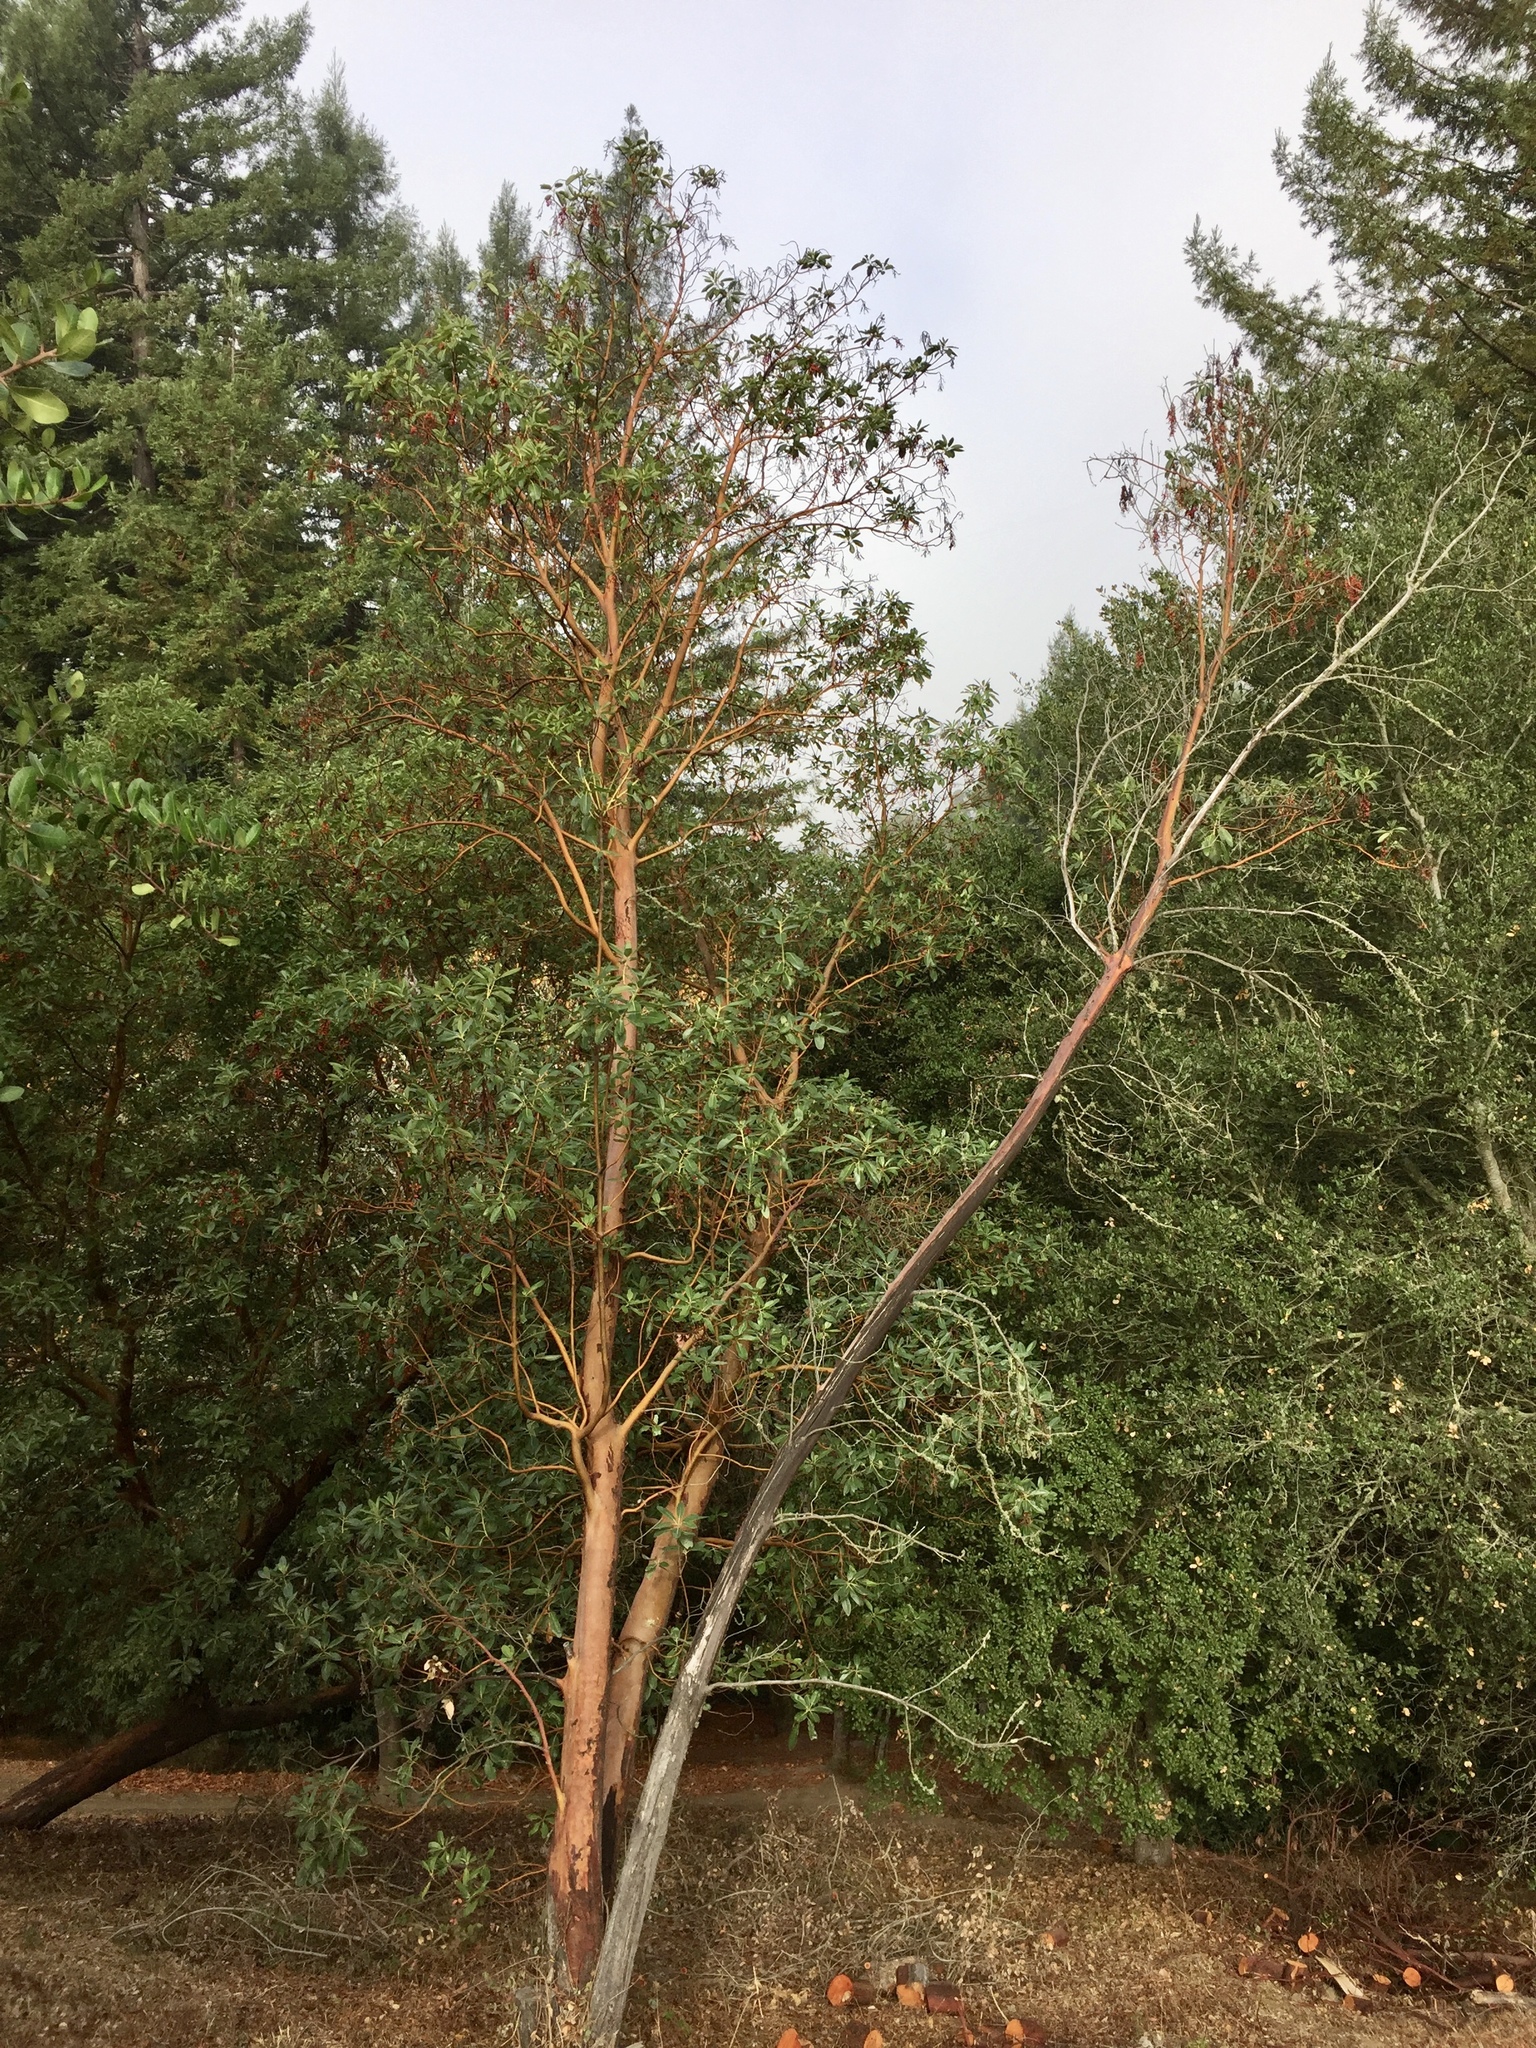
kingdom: Plantae
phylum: Tracheophyta
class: Magnoliopsida
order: Ericales
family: Ericaceae
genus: Arbutus
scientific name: Arbutus menziesii
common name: Pacific madrone
